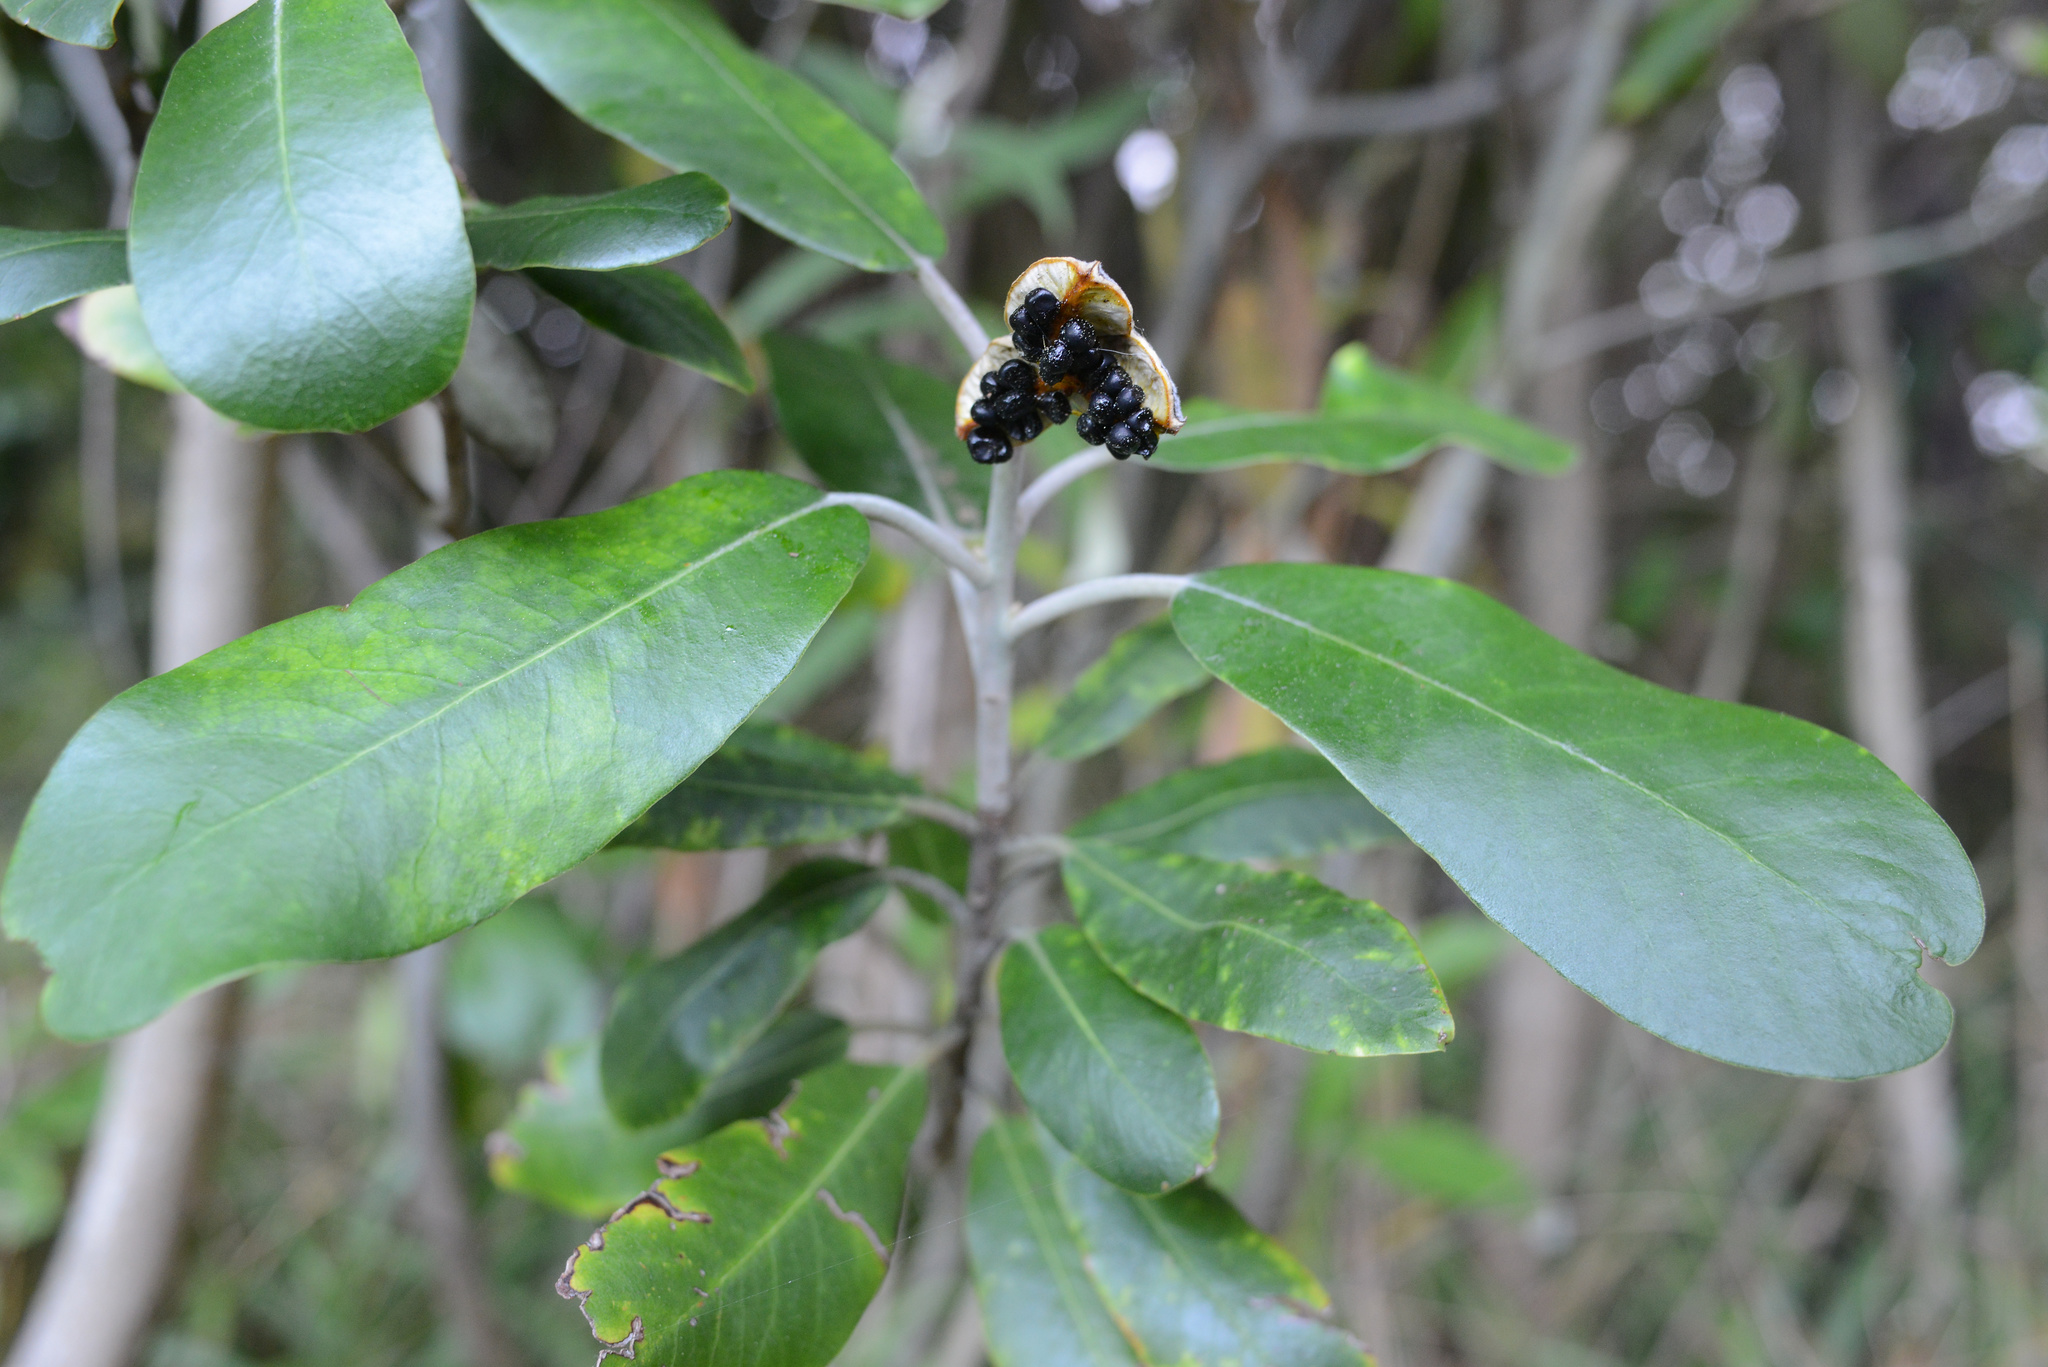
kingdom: Plantae
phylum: Tracheophyta
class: Magnoliopsida
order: Apiales
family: Pittosporaceae
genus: Pittosporum
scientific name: Pittosporum ralphii
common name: Ralph's desertwillow
